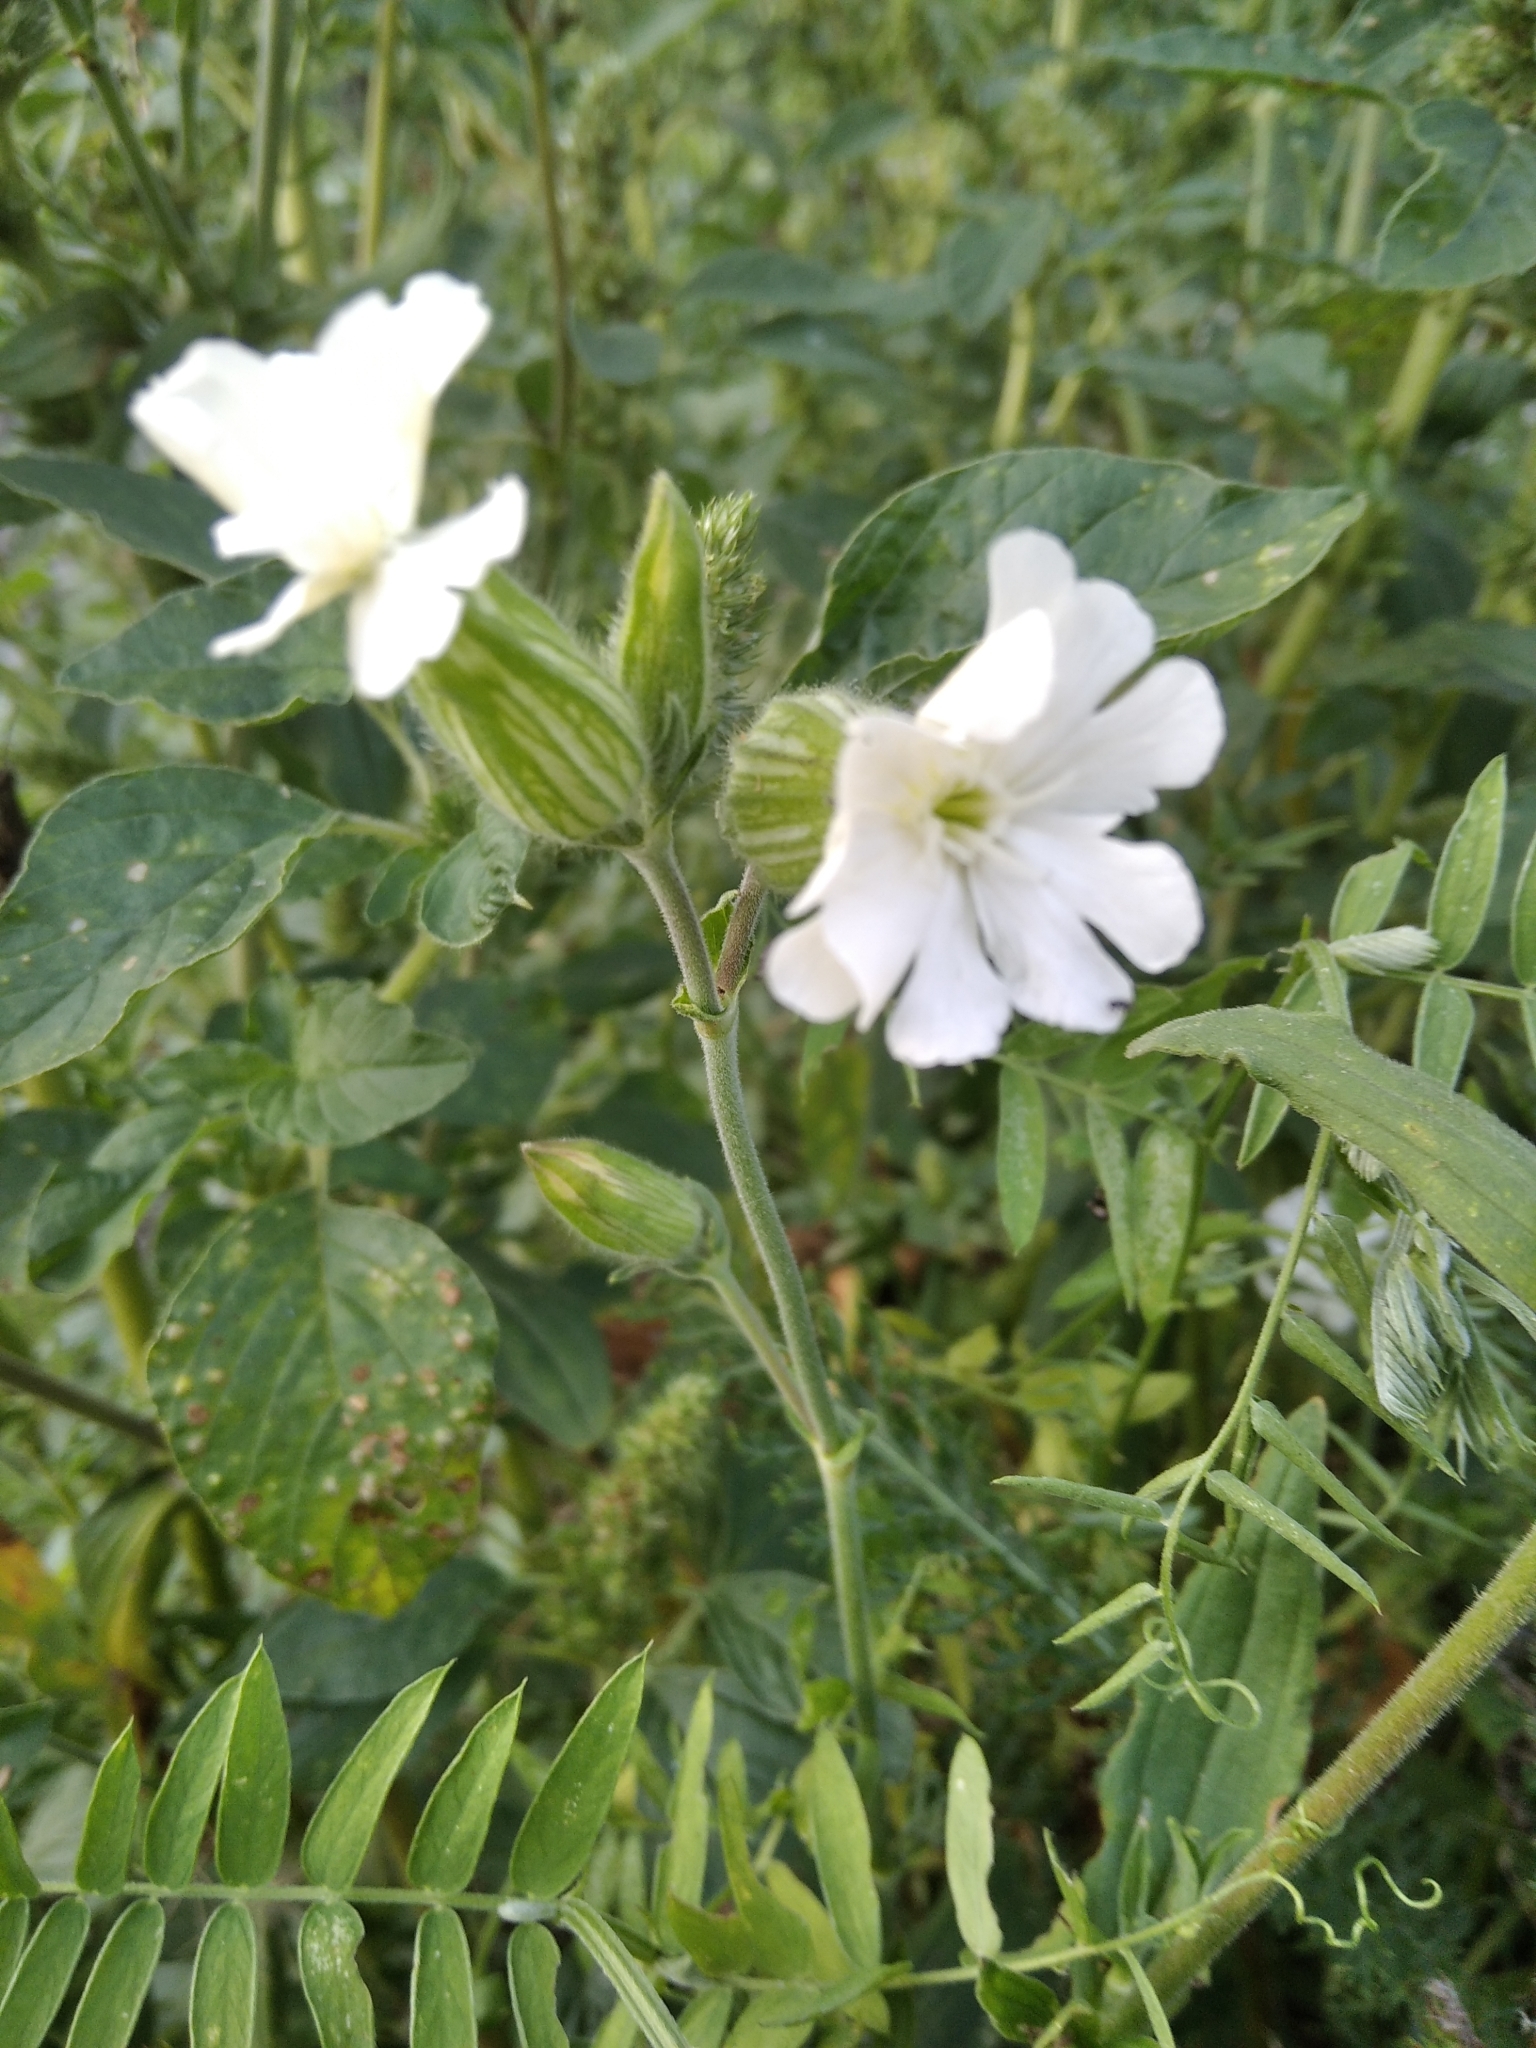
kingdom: Plantae
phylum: Tracheophyta
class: Magnoliopsida
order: Caryophyllales
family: Caryophyllaceae
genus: Silene
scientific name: Silene latifolia
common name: White campion
